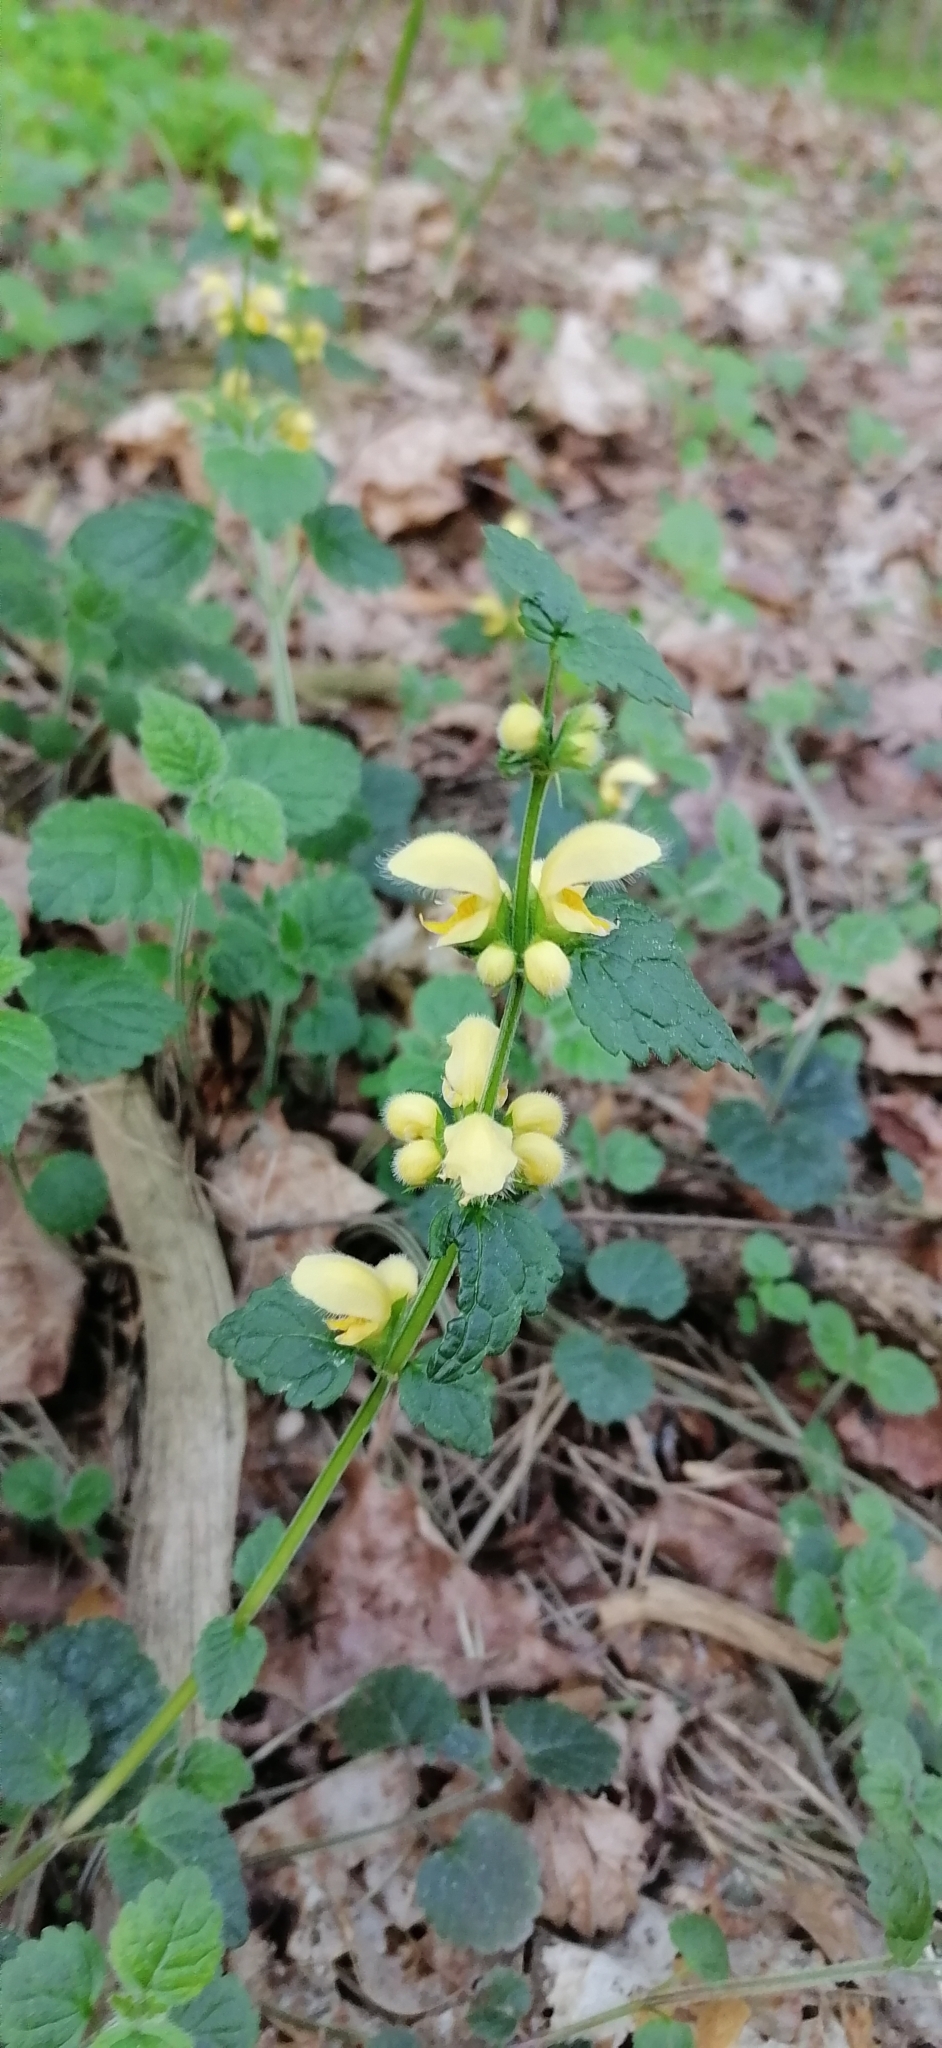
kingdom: Plantae
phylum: Tracheophyta
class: Magnoliopsida
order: Lamiales
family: Lamiaceae
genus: Lamium
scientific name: Lamium galeobdolon
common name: Yellow archangel
